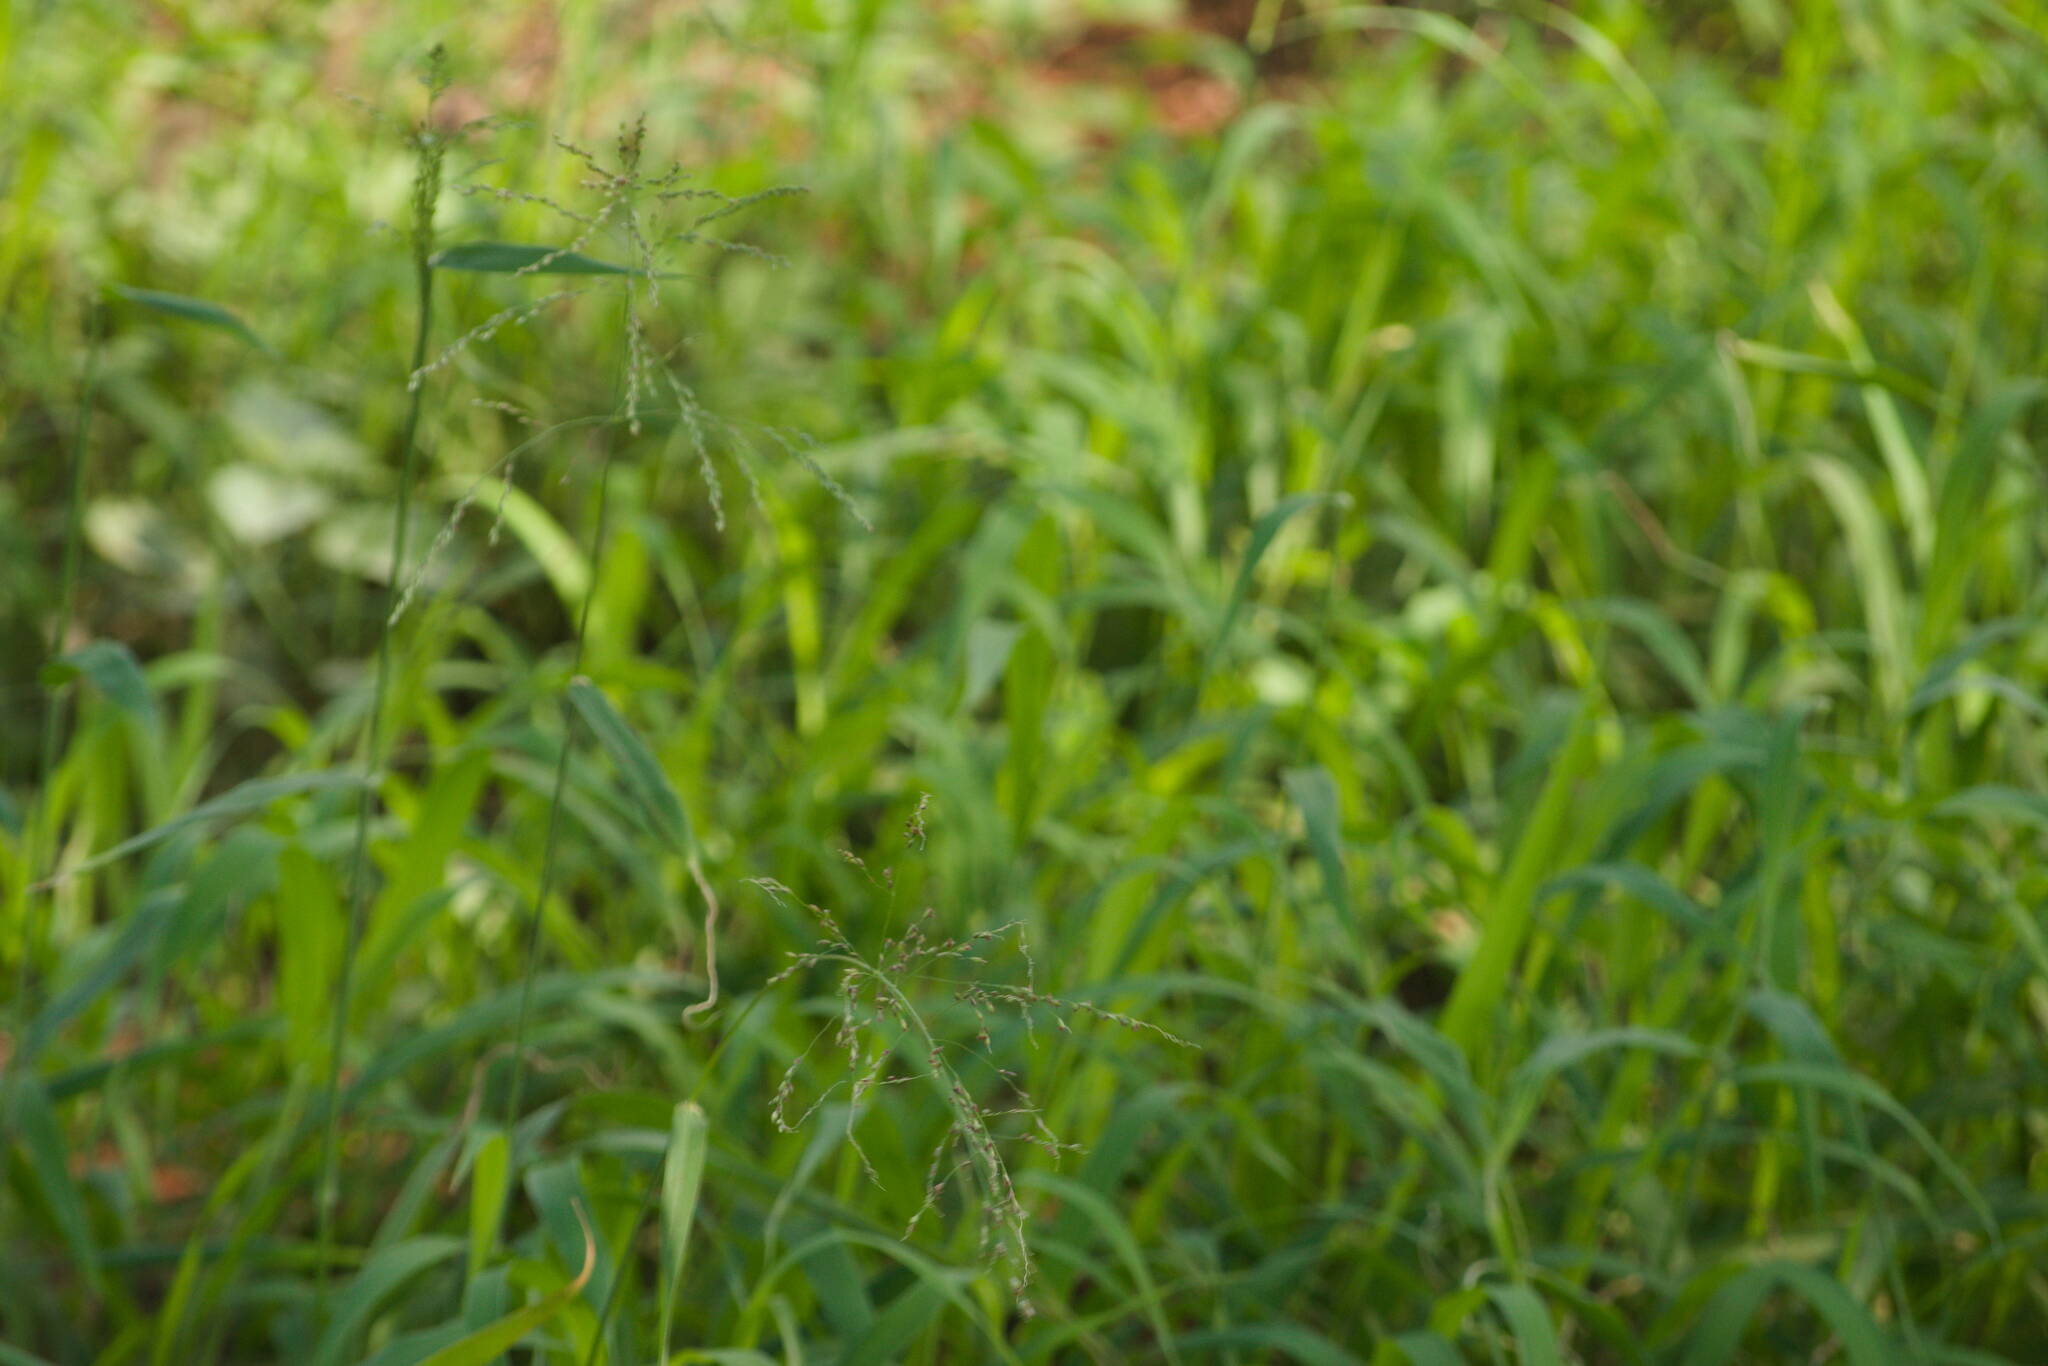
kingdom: Plantae
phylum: Tracheophyta
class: Liliopsida
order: Poales
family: Poaceae
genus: Megathyrsus
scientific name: Megathyrsus maximus
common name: Guineagrass
